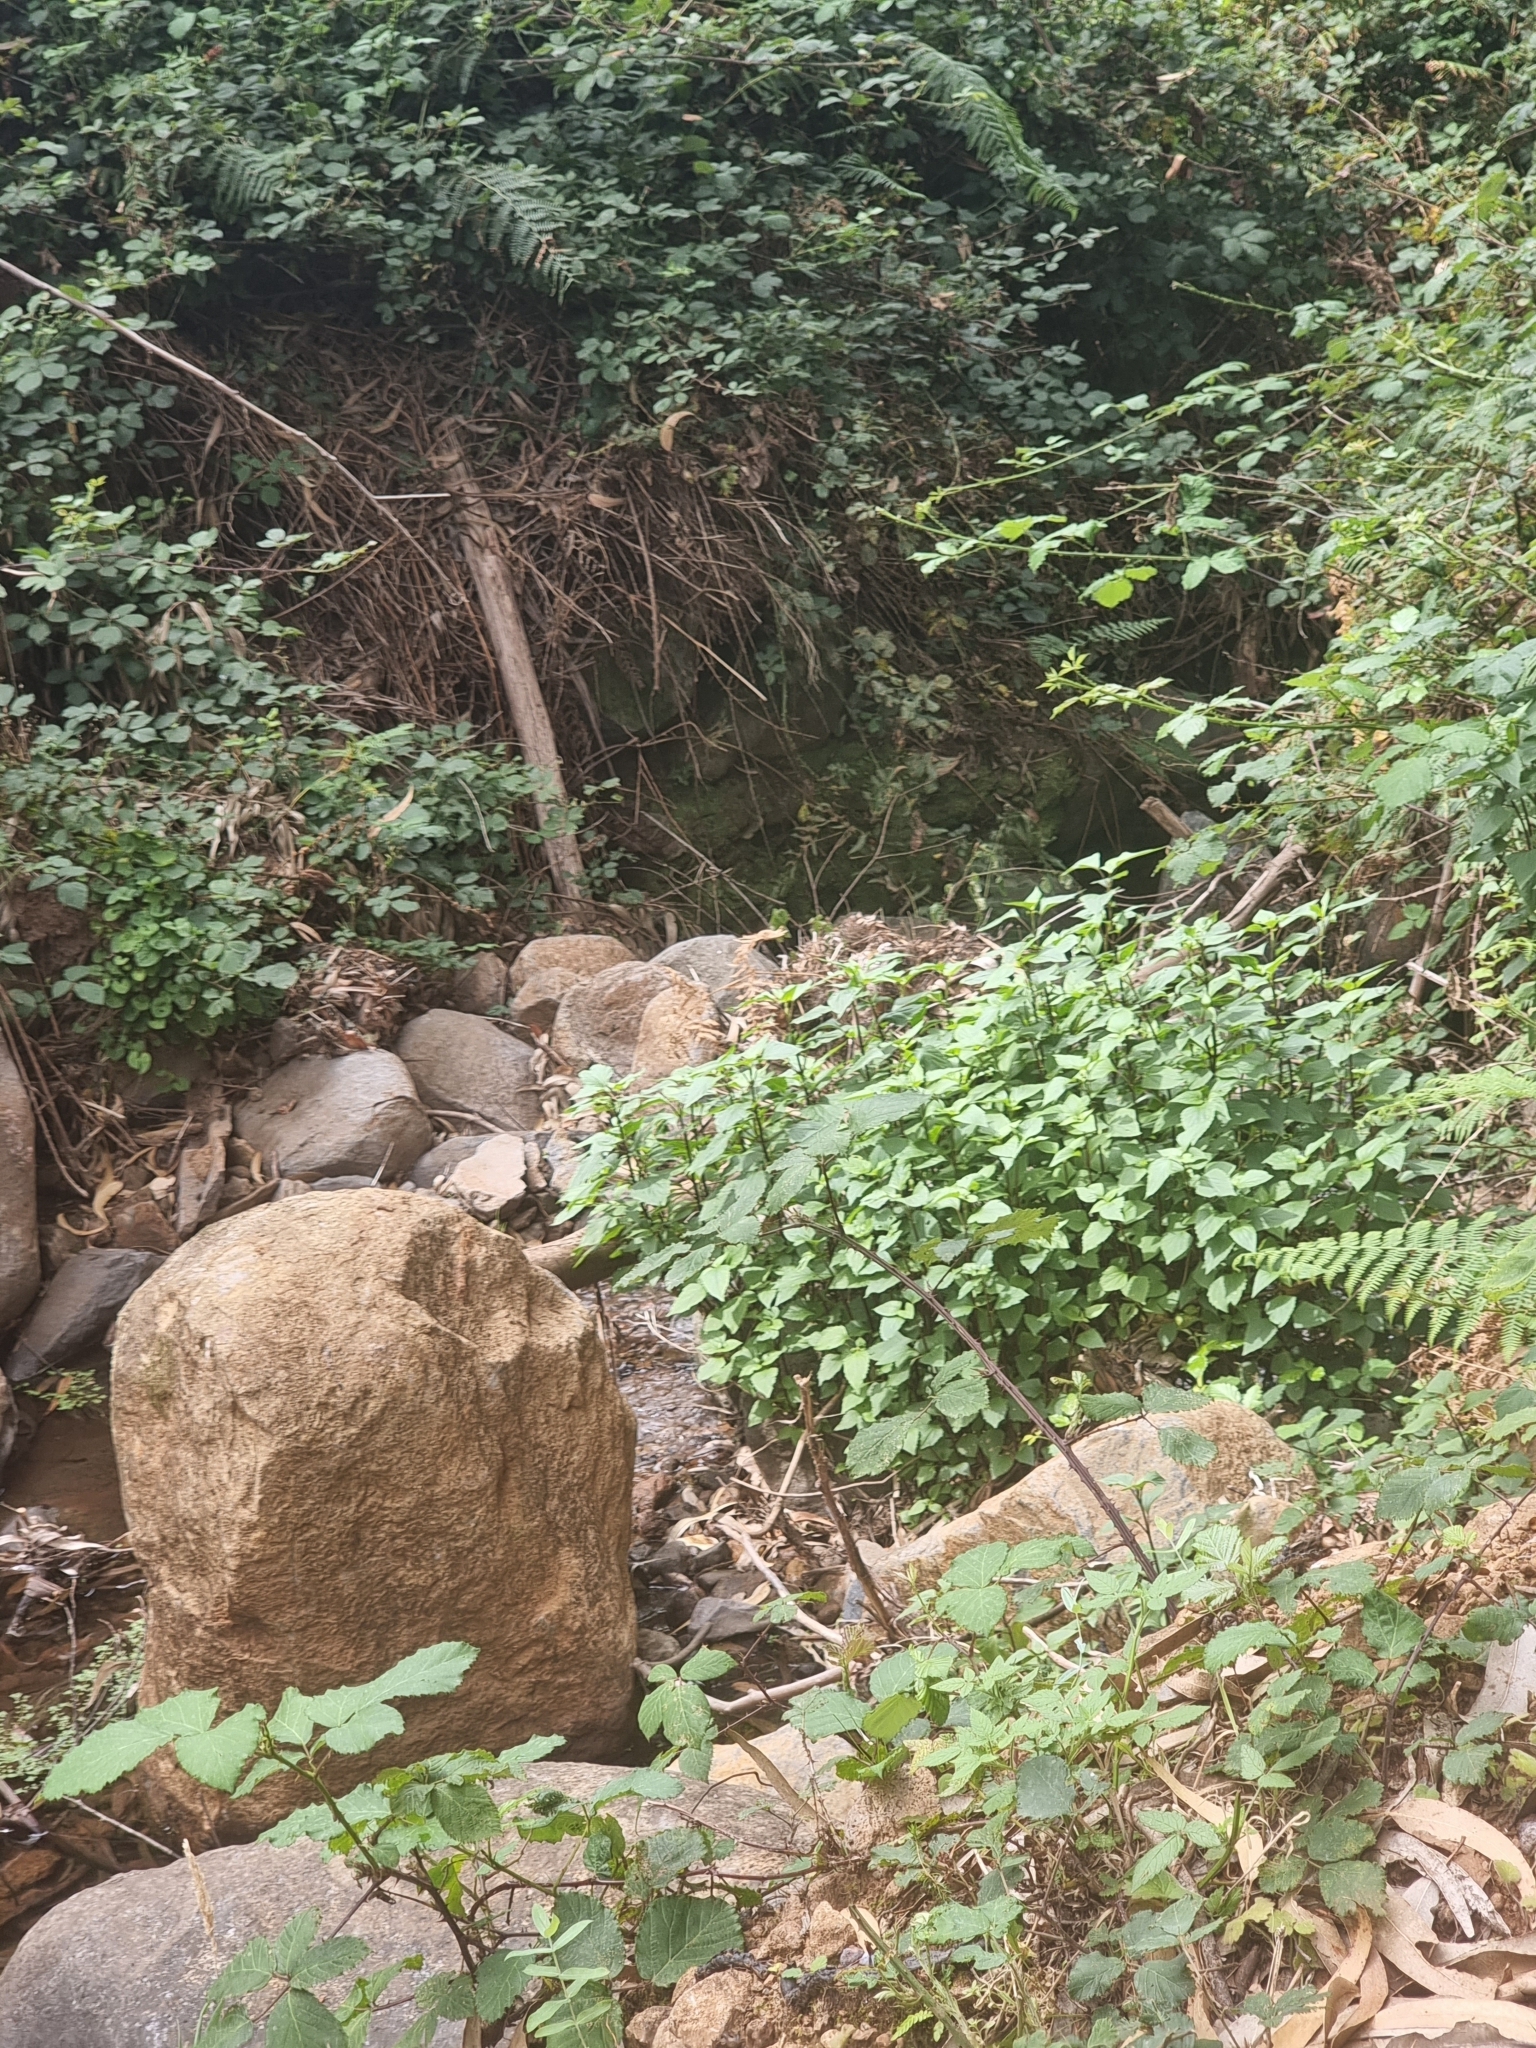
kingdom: Plantae
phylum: Tracheophyta
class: Magnoliopsida
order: Asterales
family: Asteraceae
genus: Ageratina
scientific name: Ageratina adenophora
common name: Sticky snakeroot
